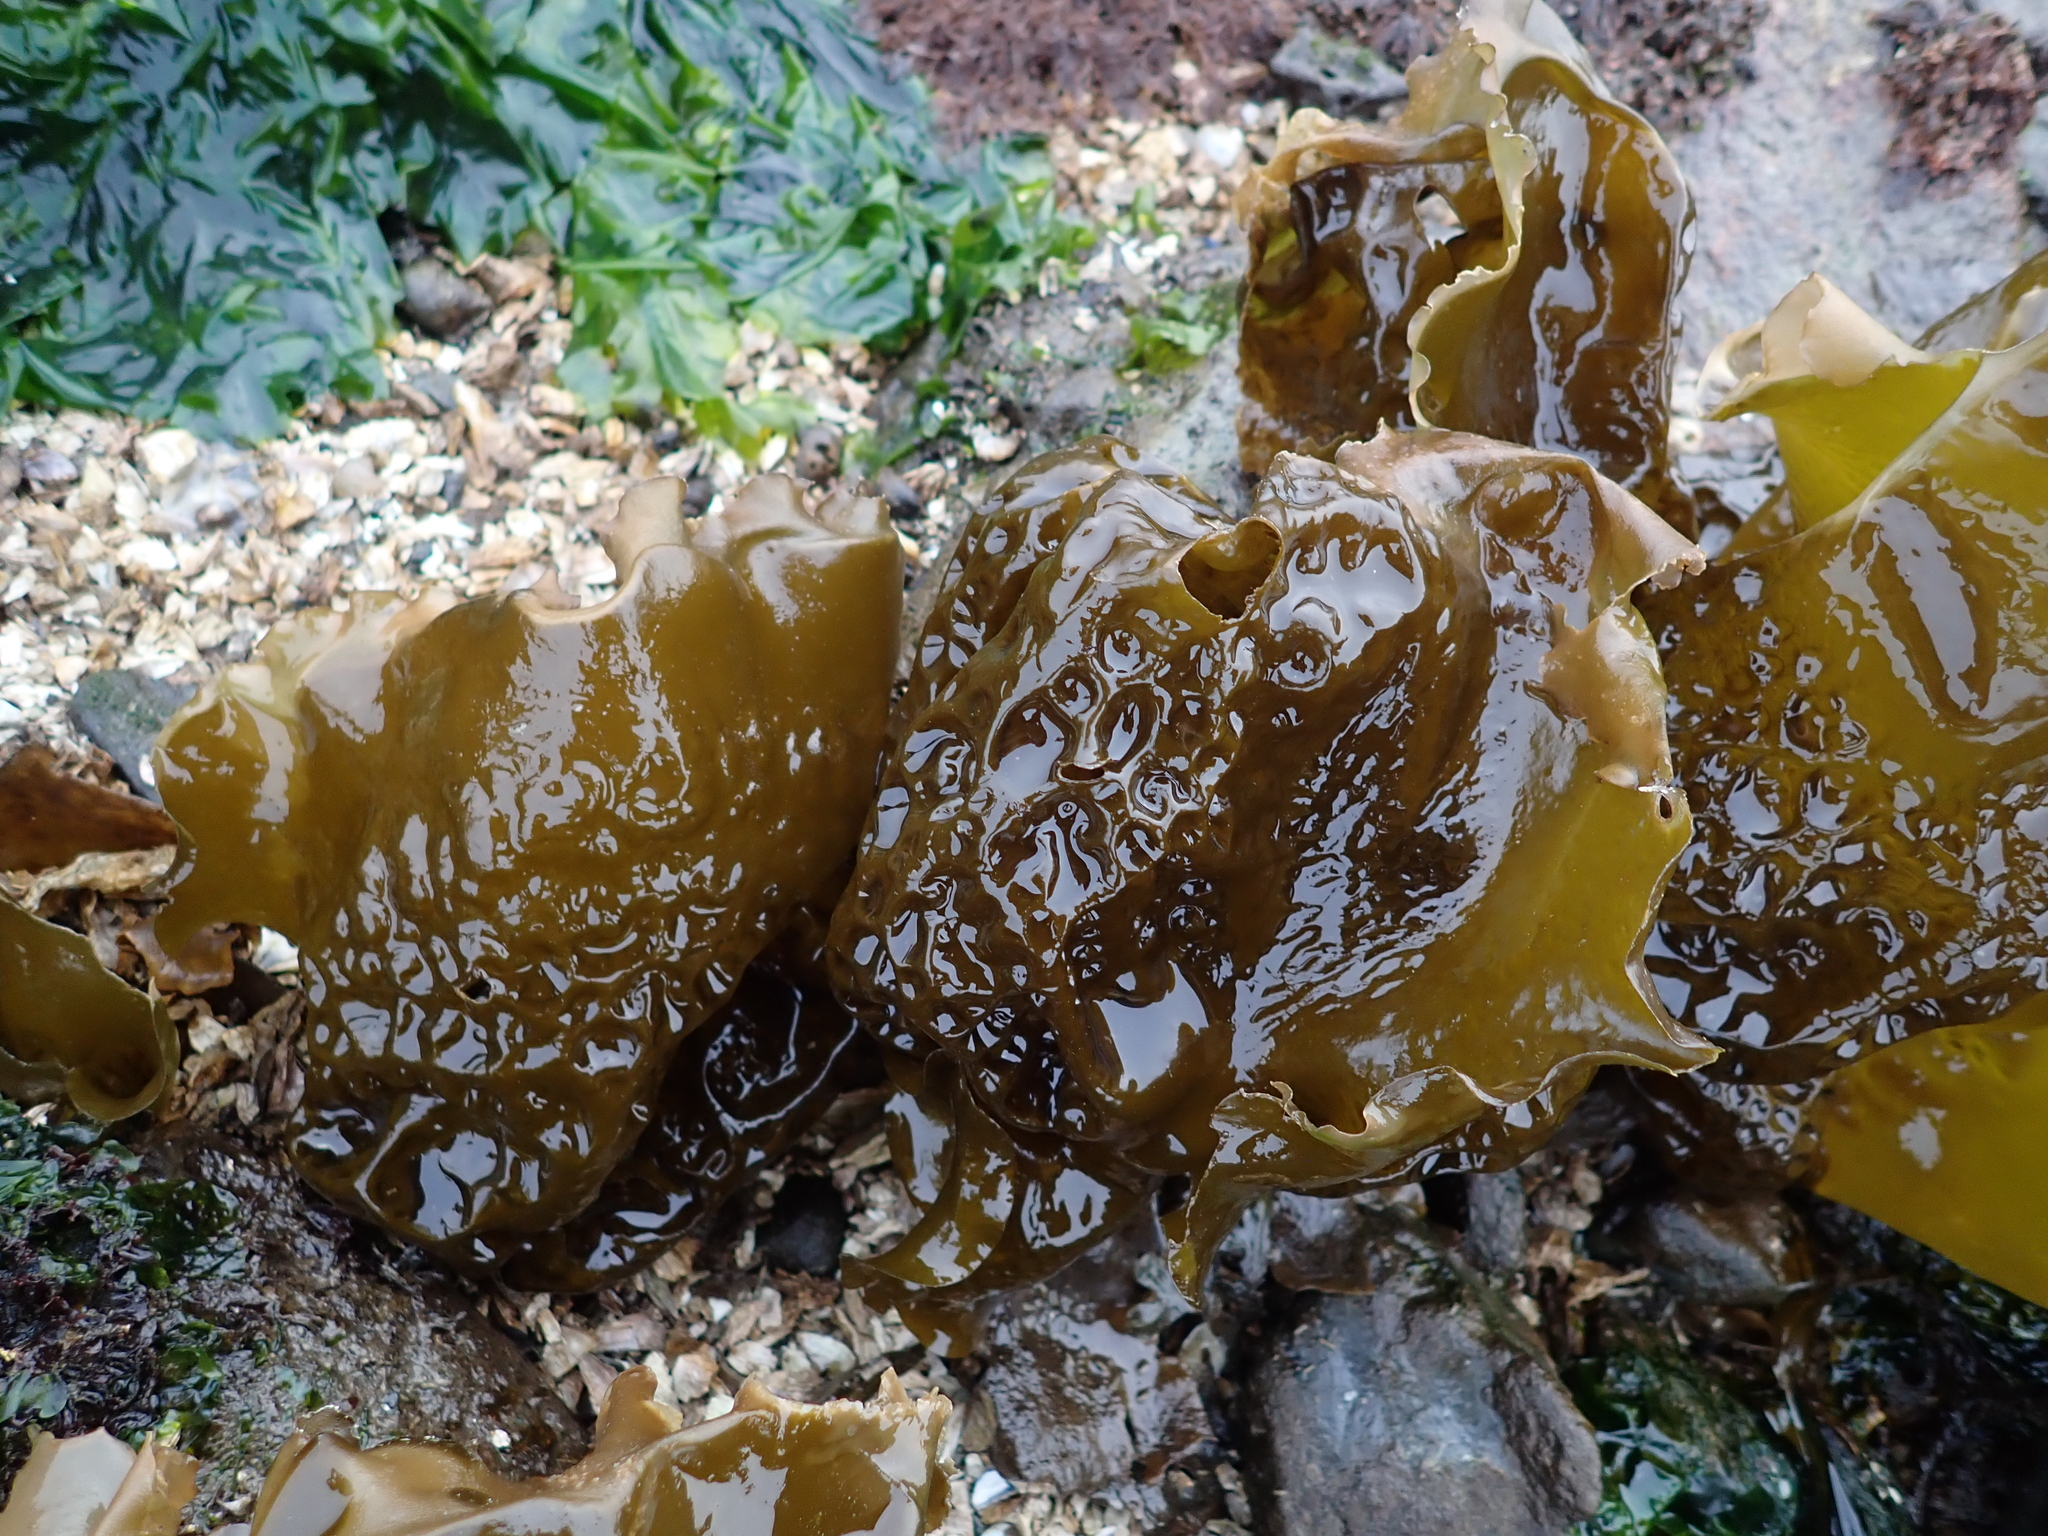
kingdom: Chromista
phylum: Ochrophyta
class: Phaeophyceae
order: Laminariales
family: Laminariaceae
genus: Hedophyllum
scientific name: Hedophyllum sessile
